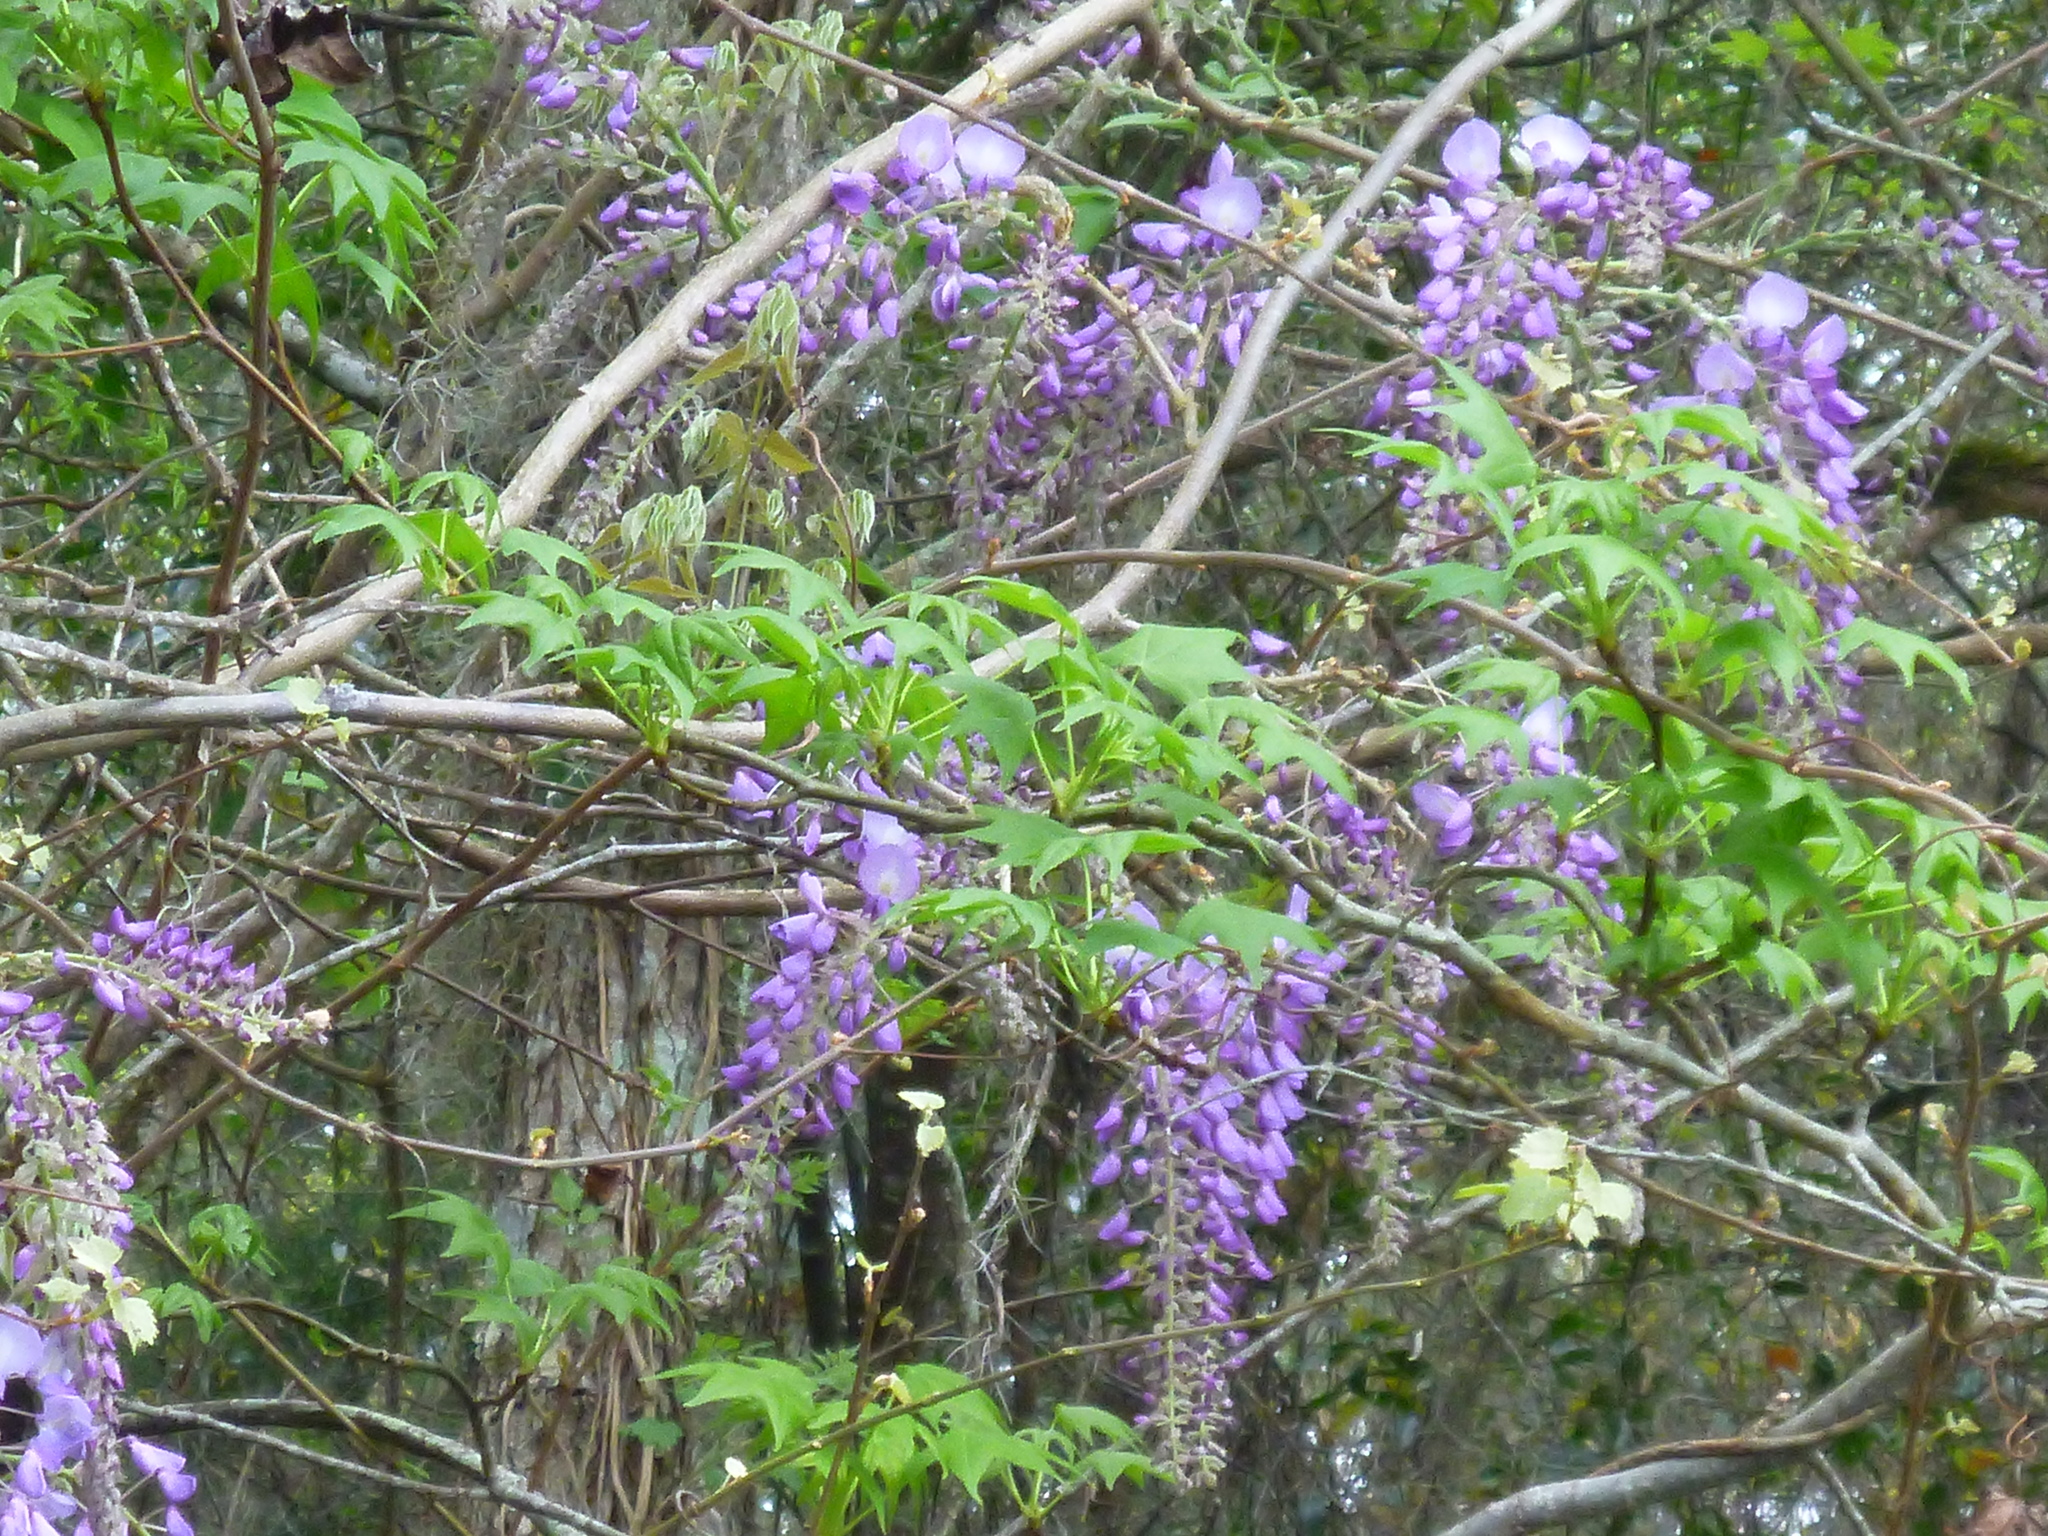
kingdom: Plantae
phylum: Tracheophyta
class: Magnoliopsida
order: Fabales
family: Fabaceae
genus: Wisteria
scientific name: Wisteria sinensis
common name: Chinese wisteria
